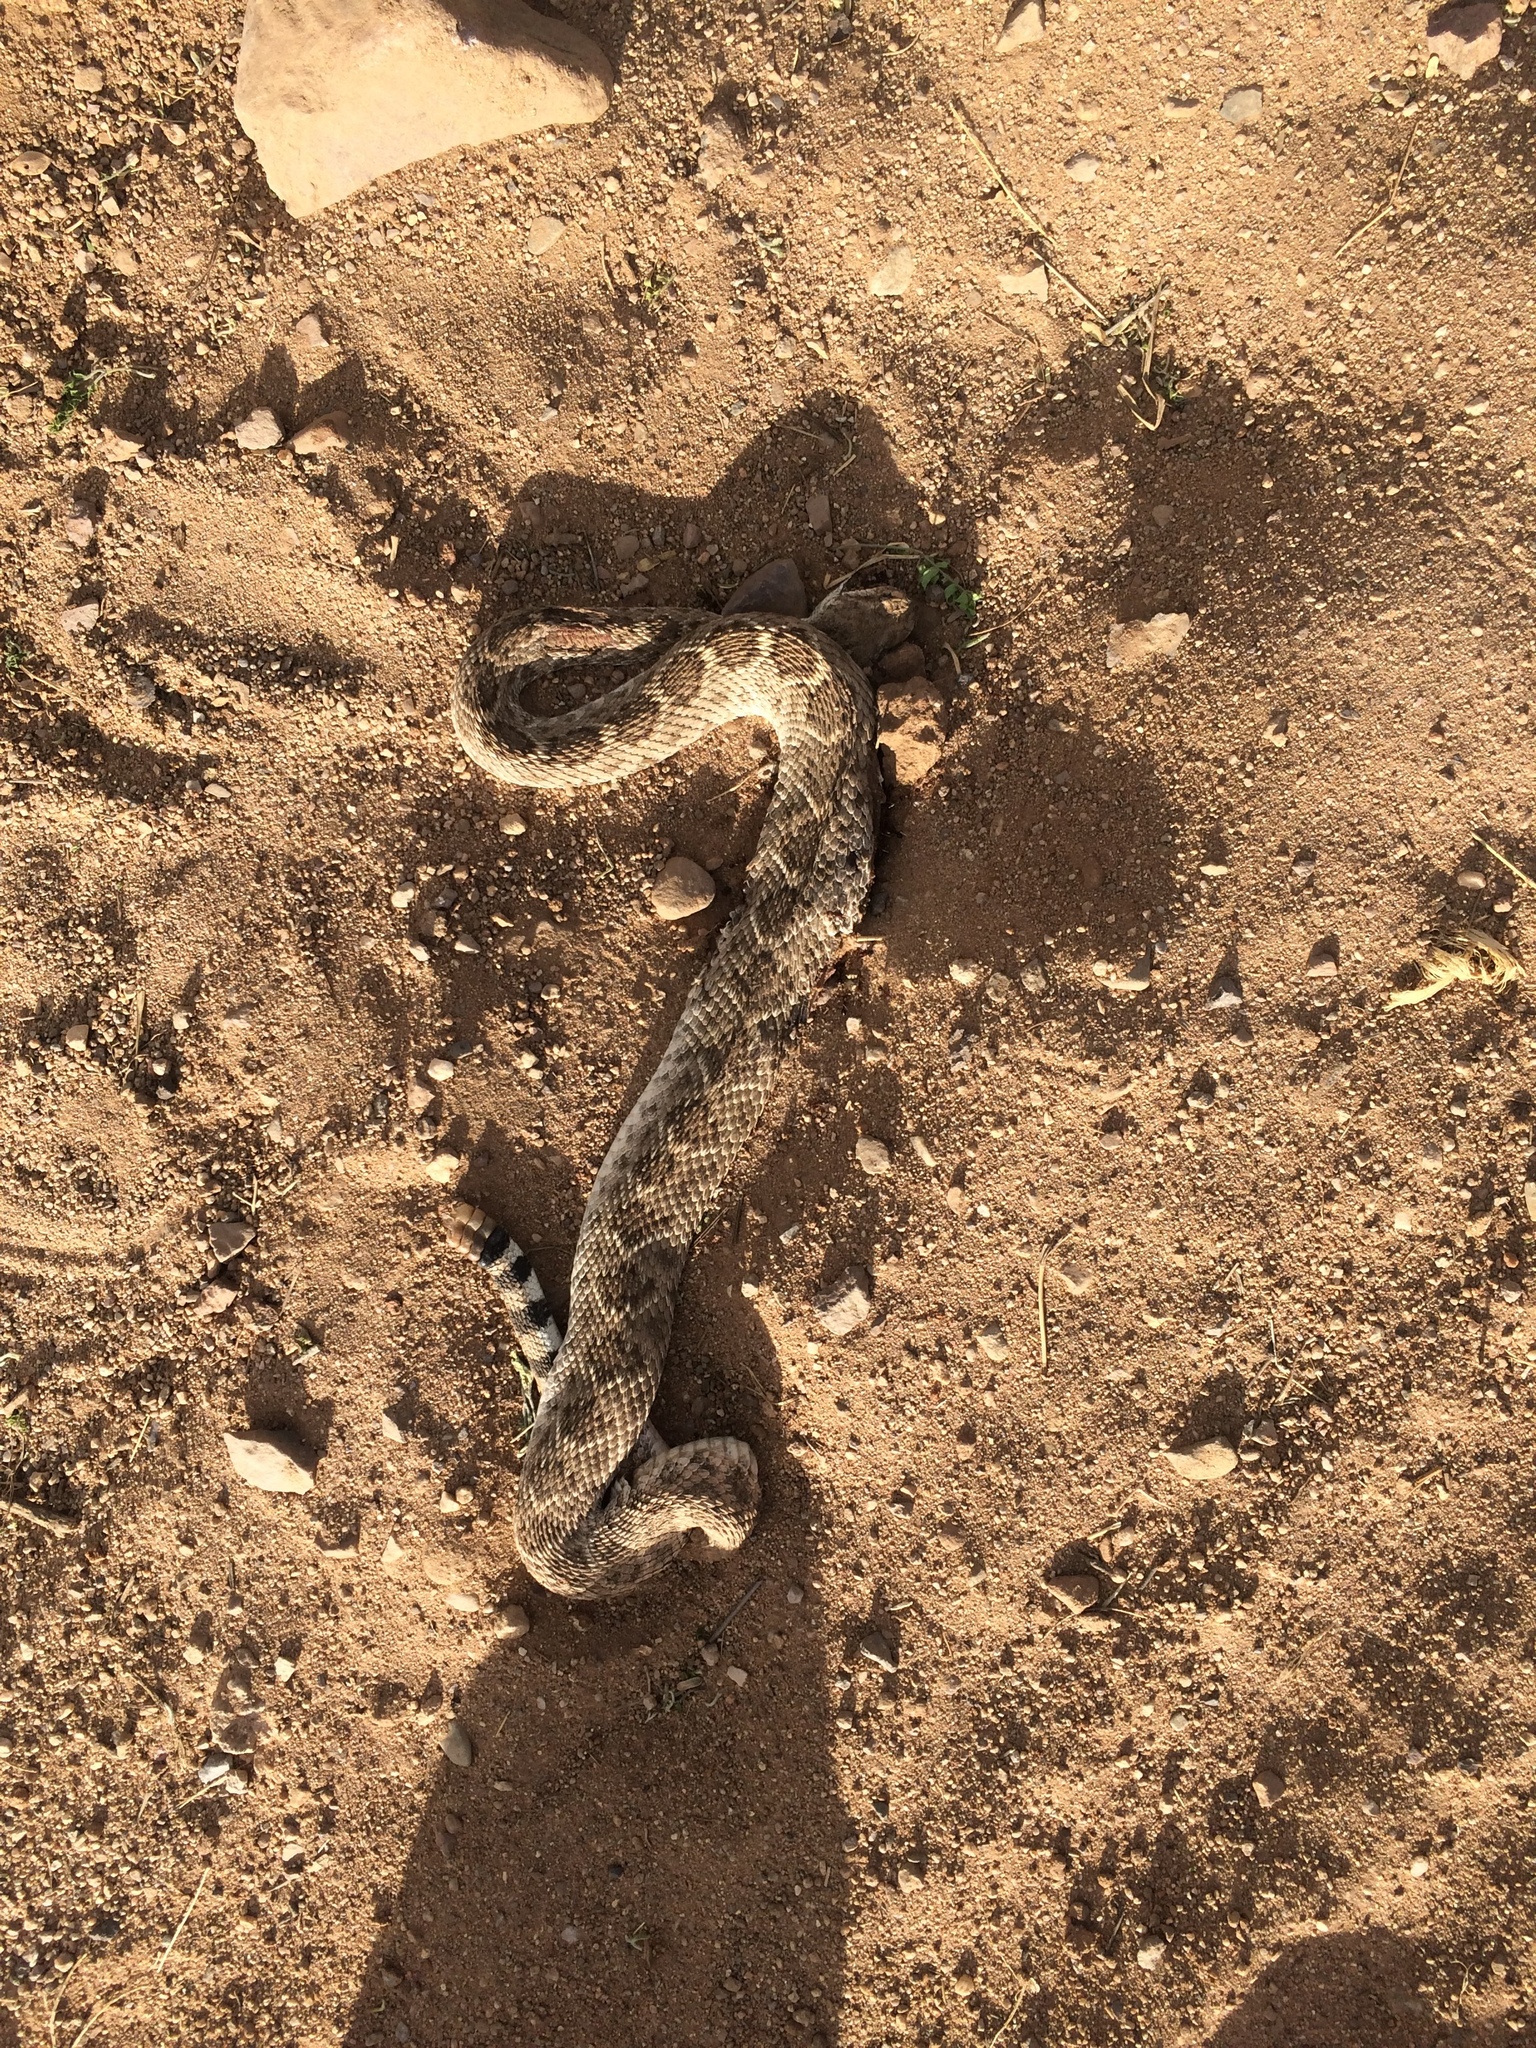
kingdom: Animalia
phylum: Chordata
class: Squamata
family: Viperidae
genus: Crotalus
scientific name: Crotalus atrox
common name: Western diamond-backed rattlesnake
